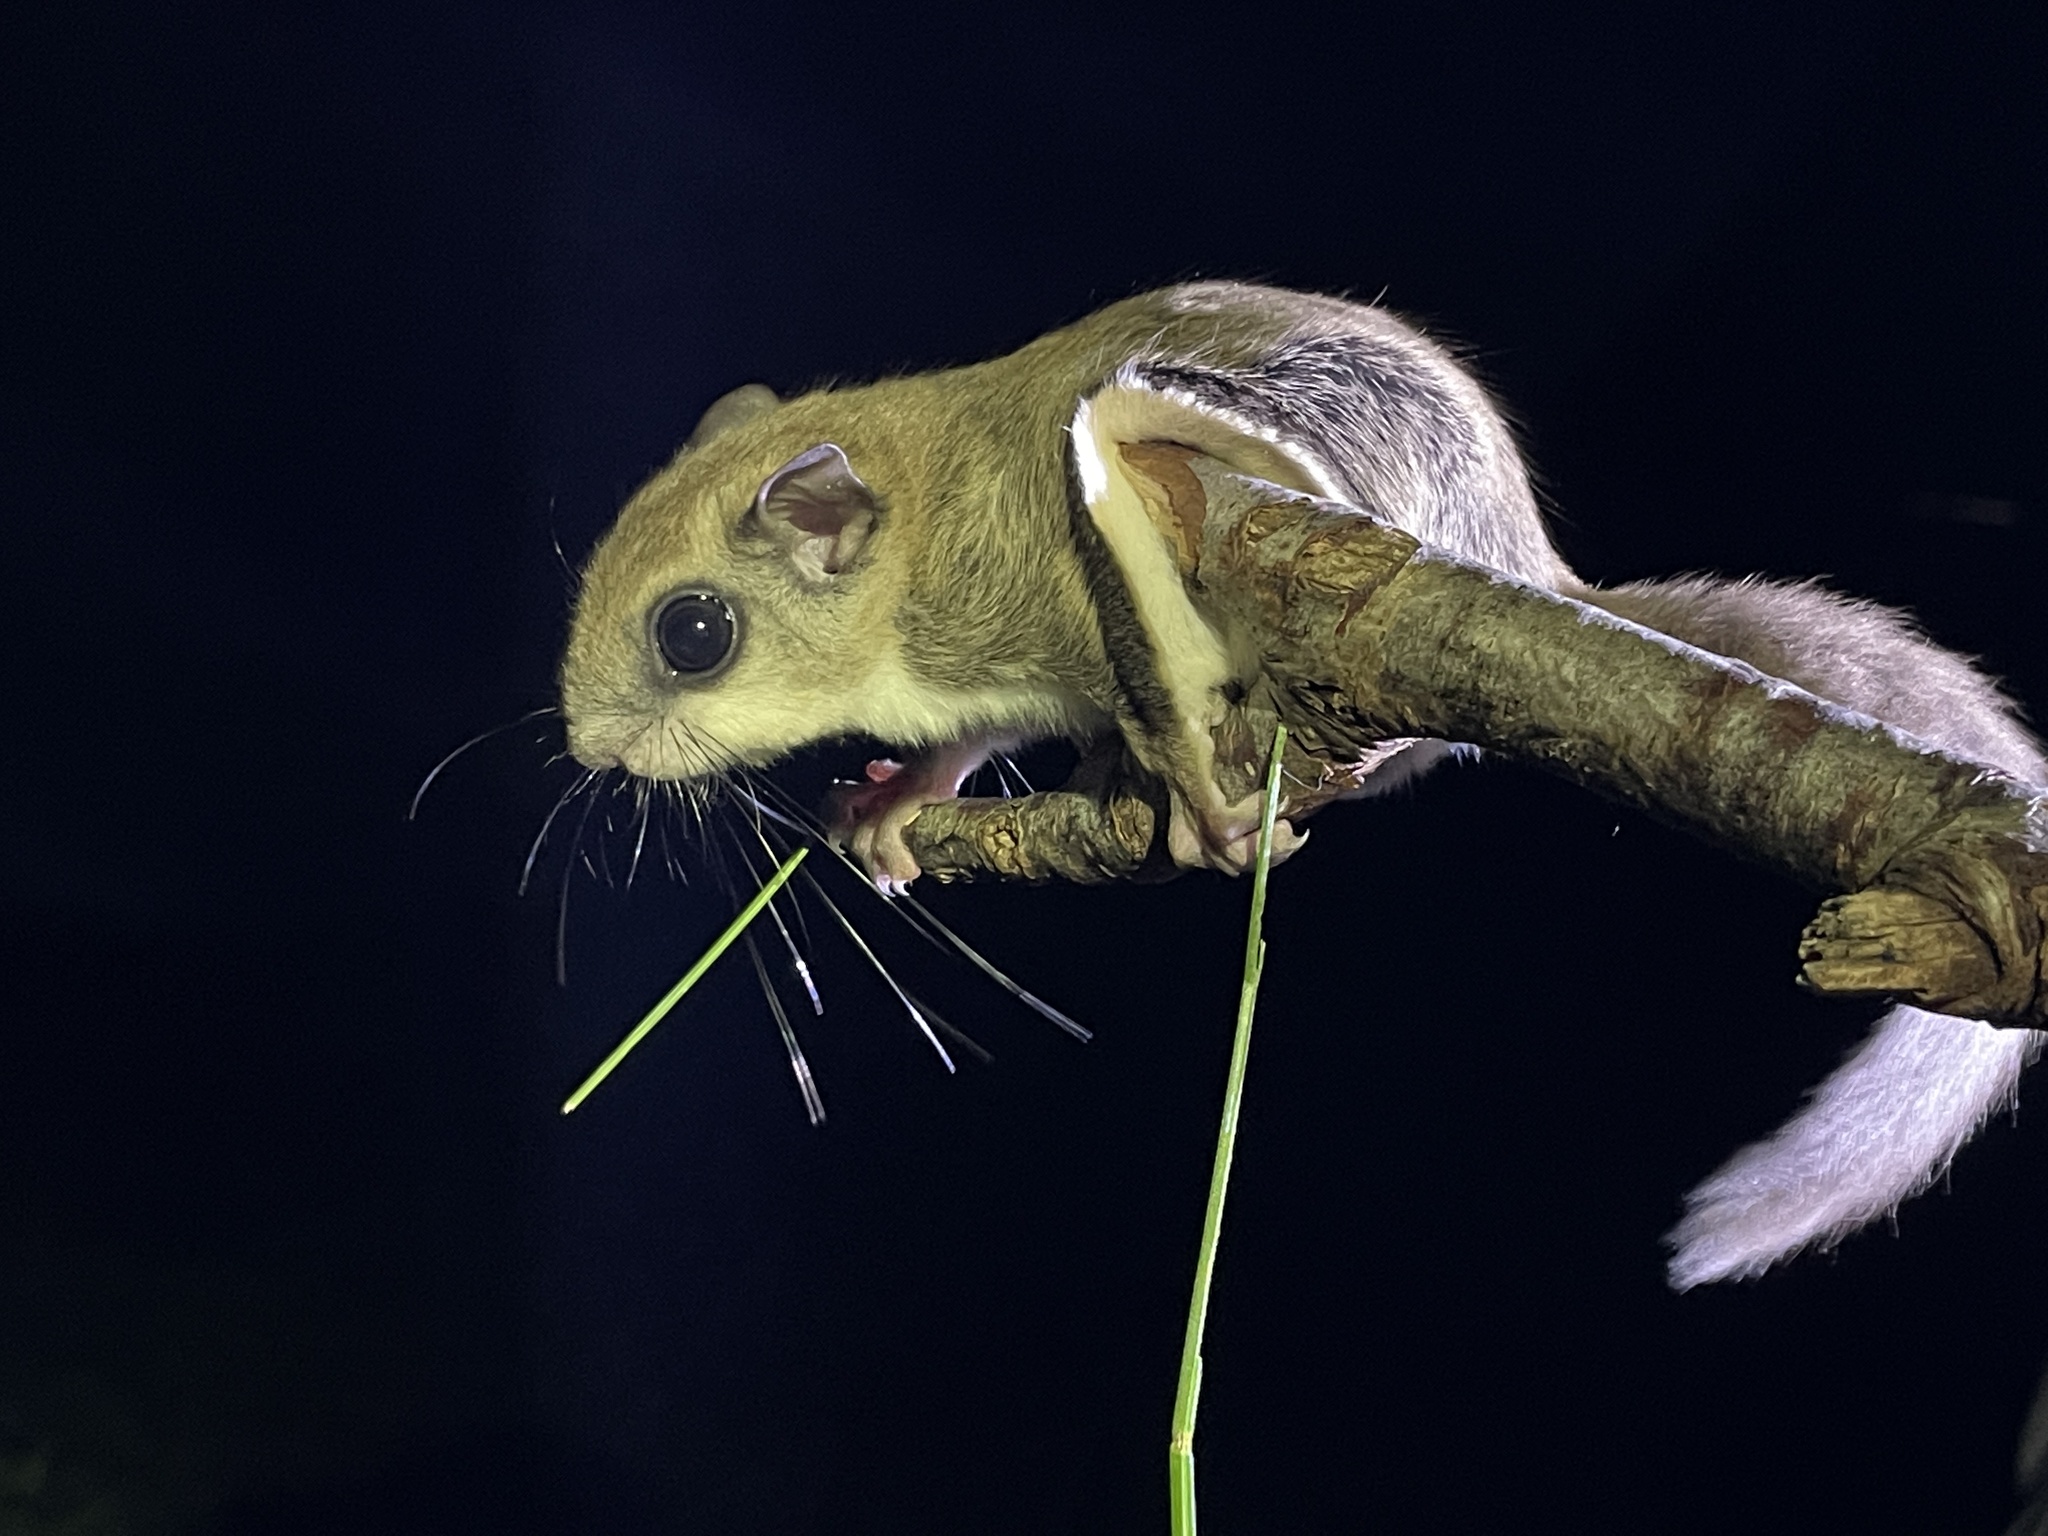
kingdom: Animalia
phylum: Chordata
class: Mammalia
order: Rodentia
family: Sciuridae
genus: Glaucomys
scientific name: Glaucomys volans
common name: Southern flying squirrel
